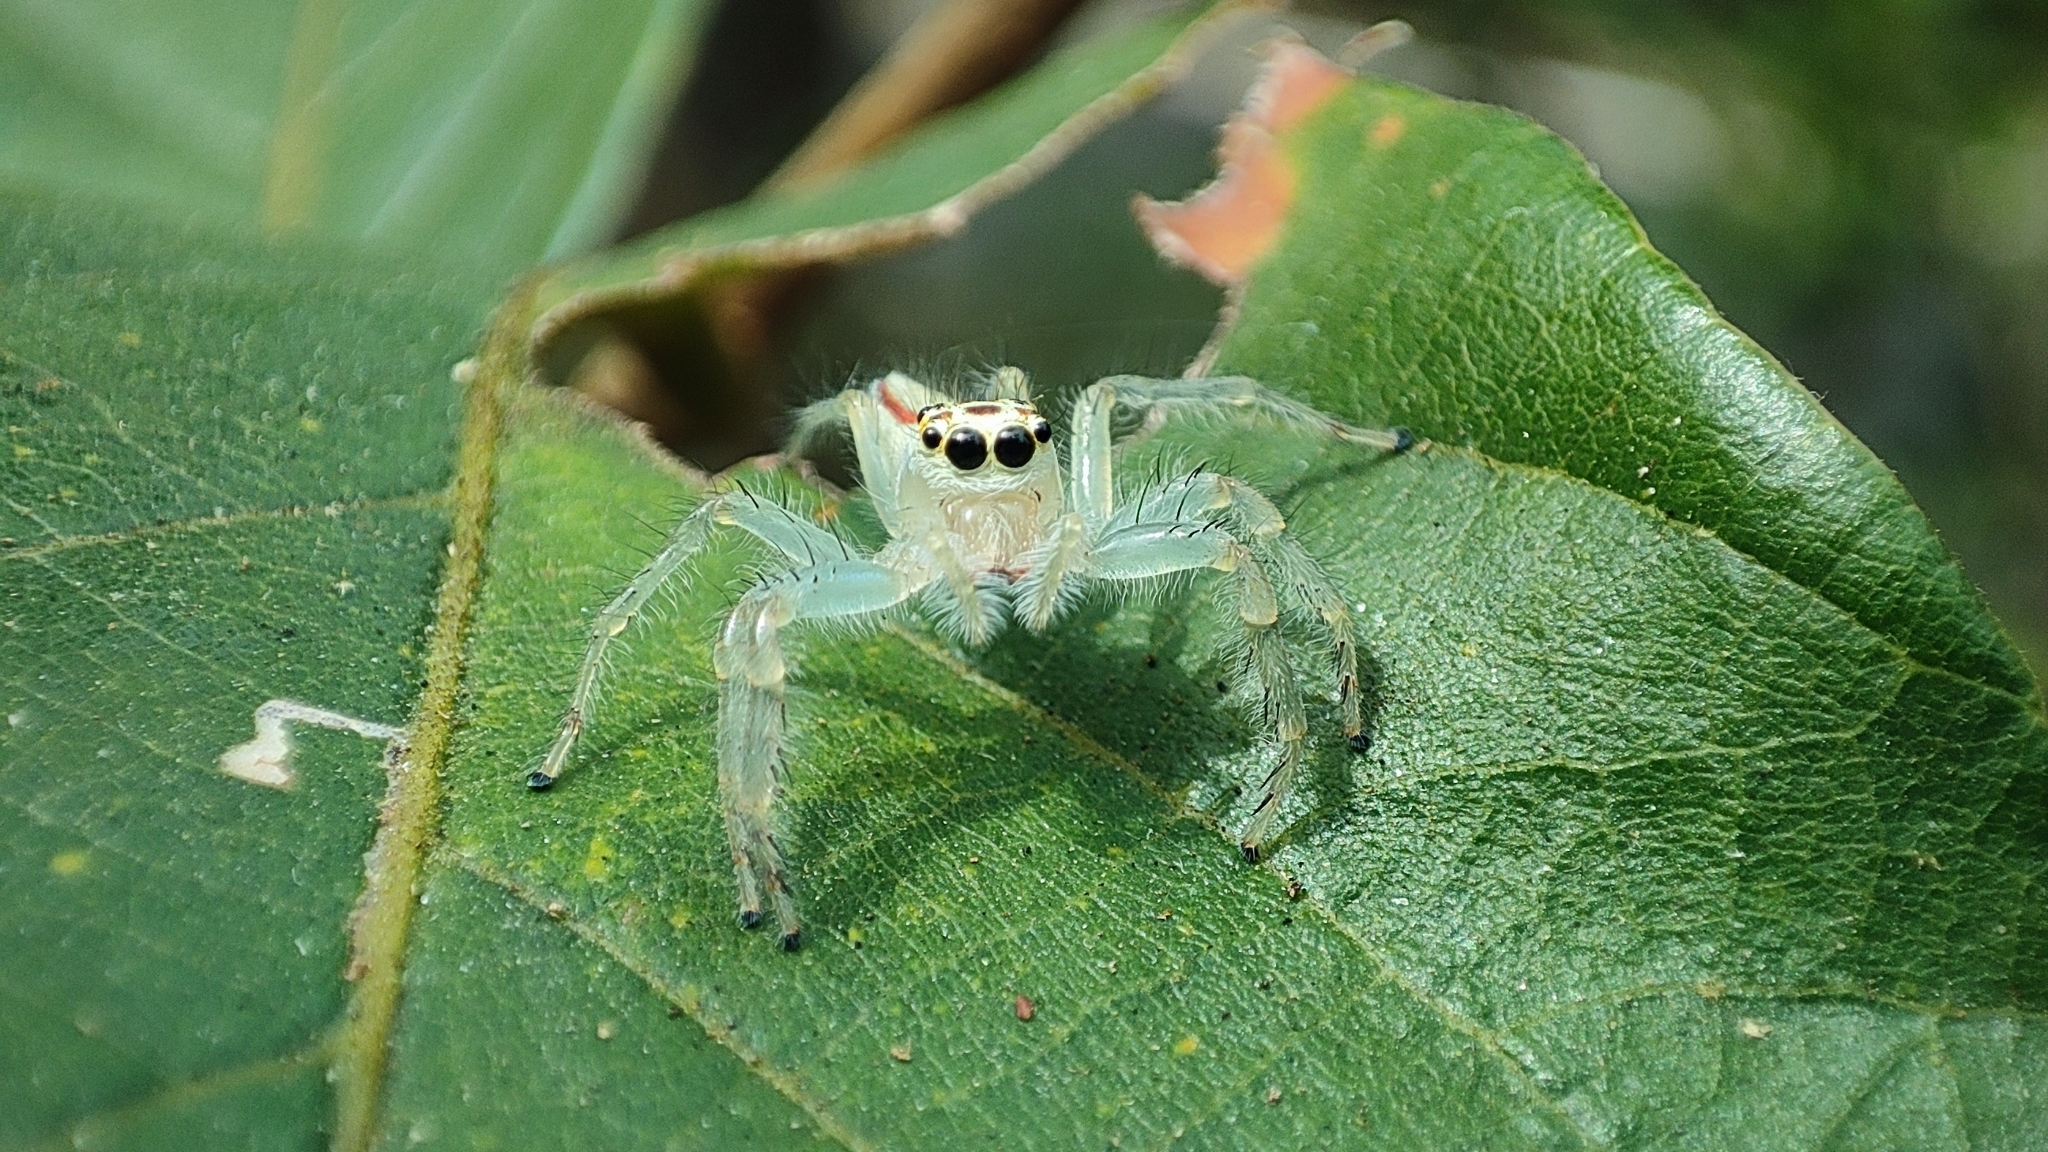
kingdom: Animalia
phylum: Arthropoda
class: Arachnida
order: Araneae
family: Salticidae
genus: Telamonia
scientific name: Telamonia dimidiata
